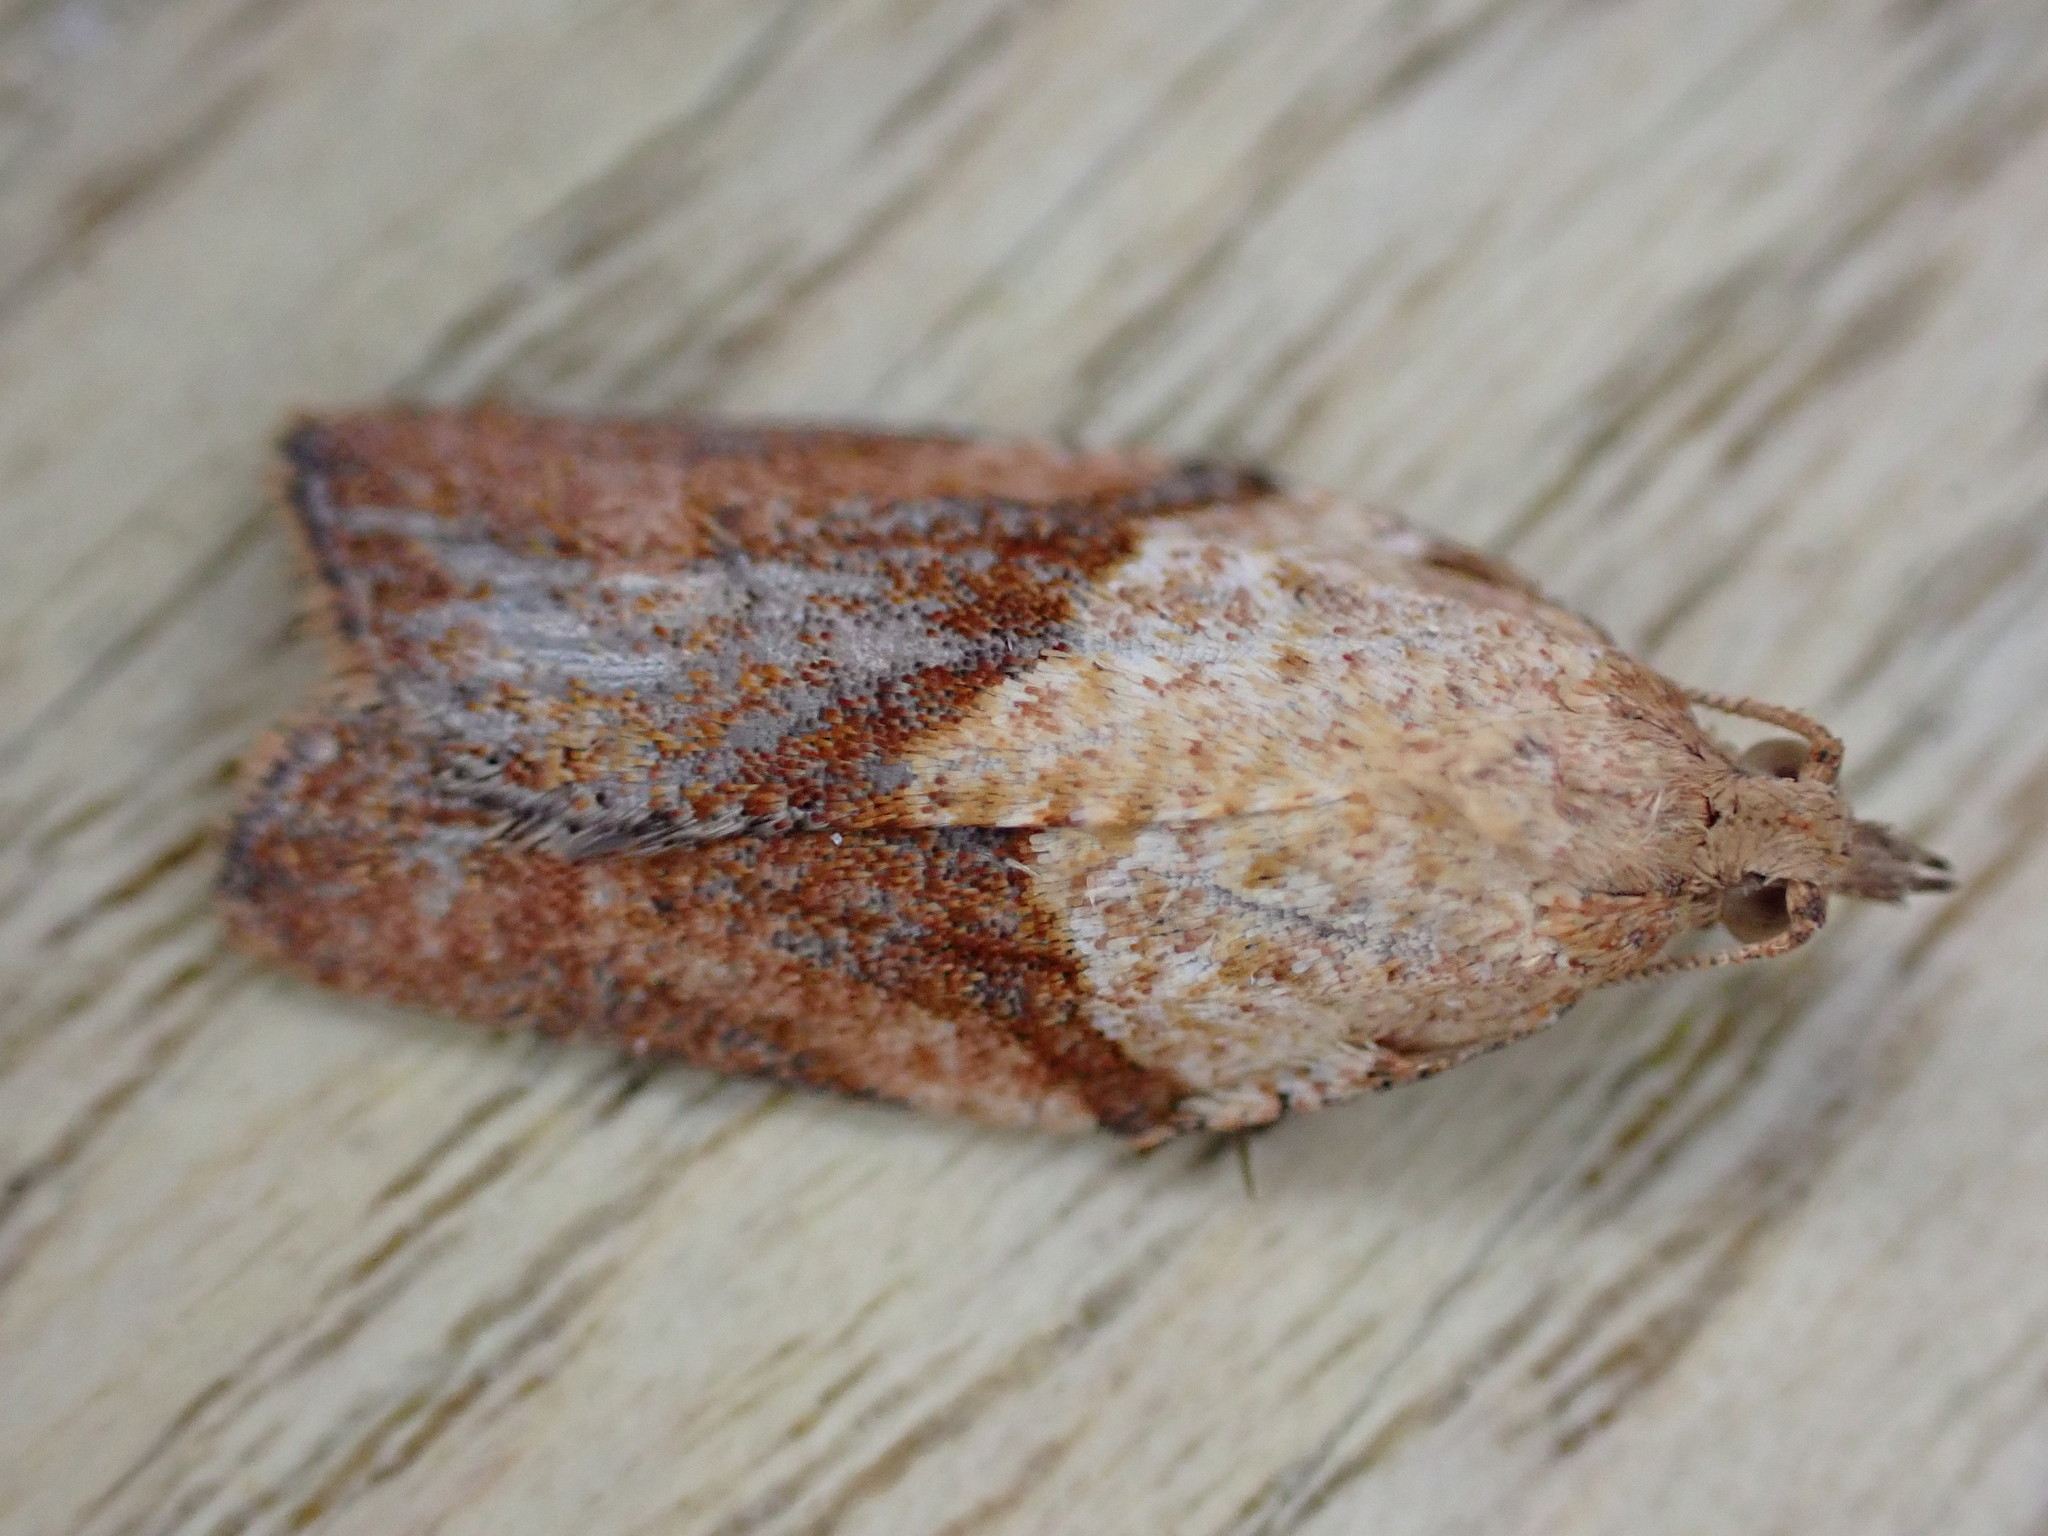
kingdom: Animalia
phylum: Arthropoda
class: Insecta
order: Lepidoptera
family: Tortricidae
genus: Epiphyas
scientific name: Epiphyas postvittana
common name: Light brown apple moth
